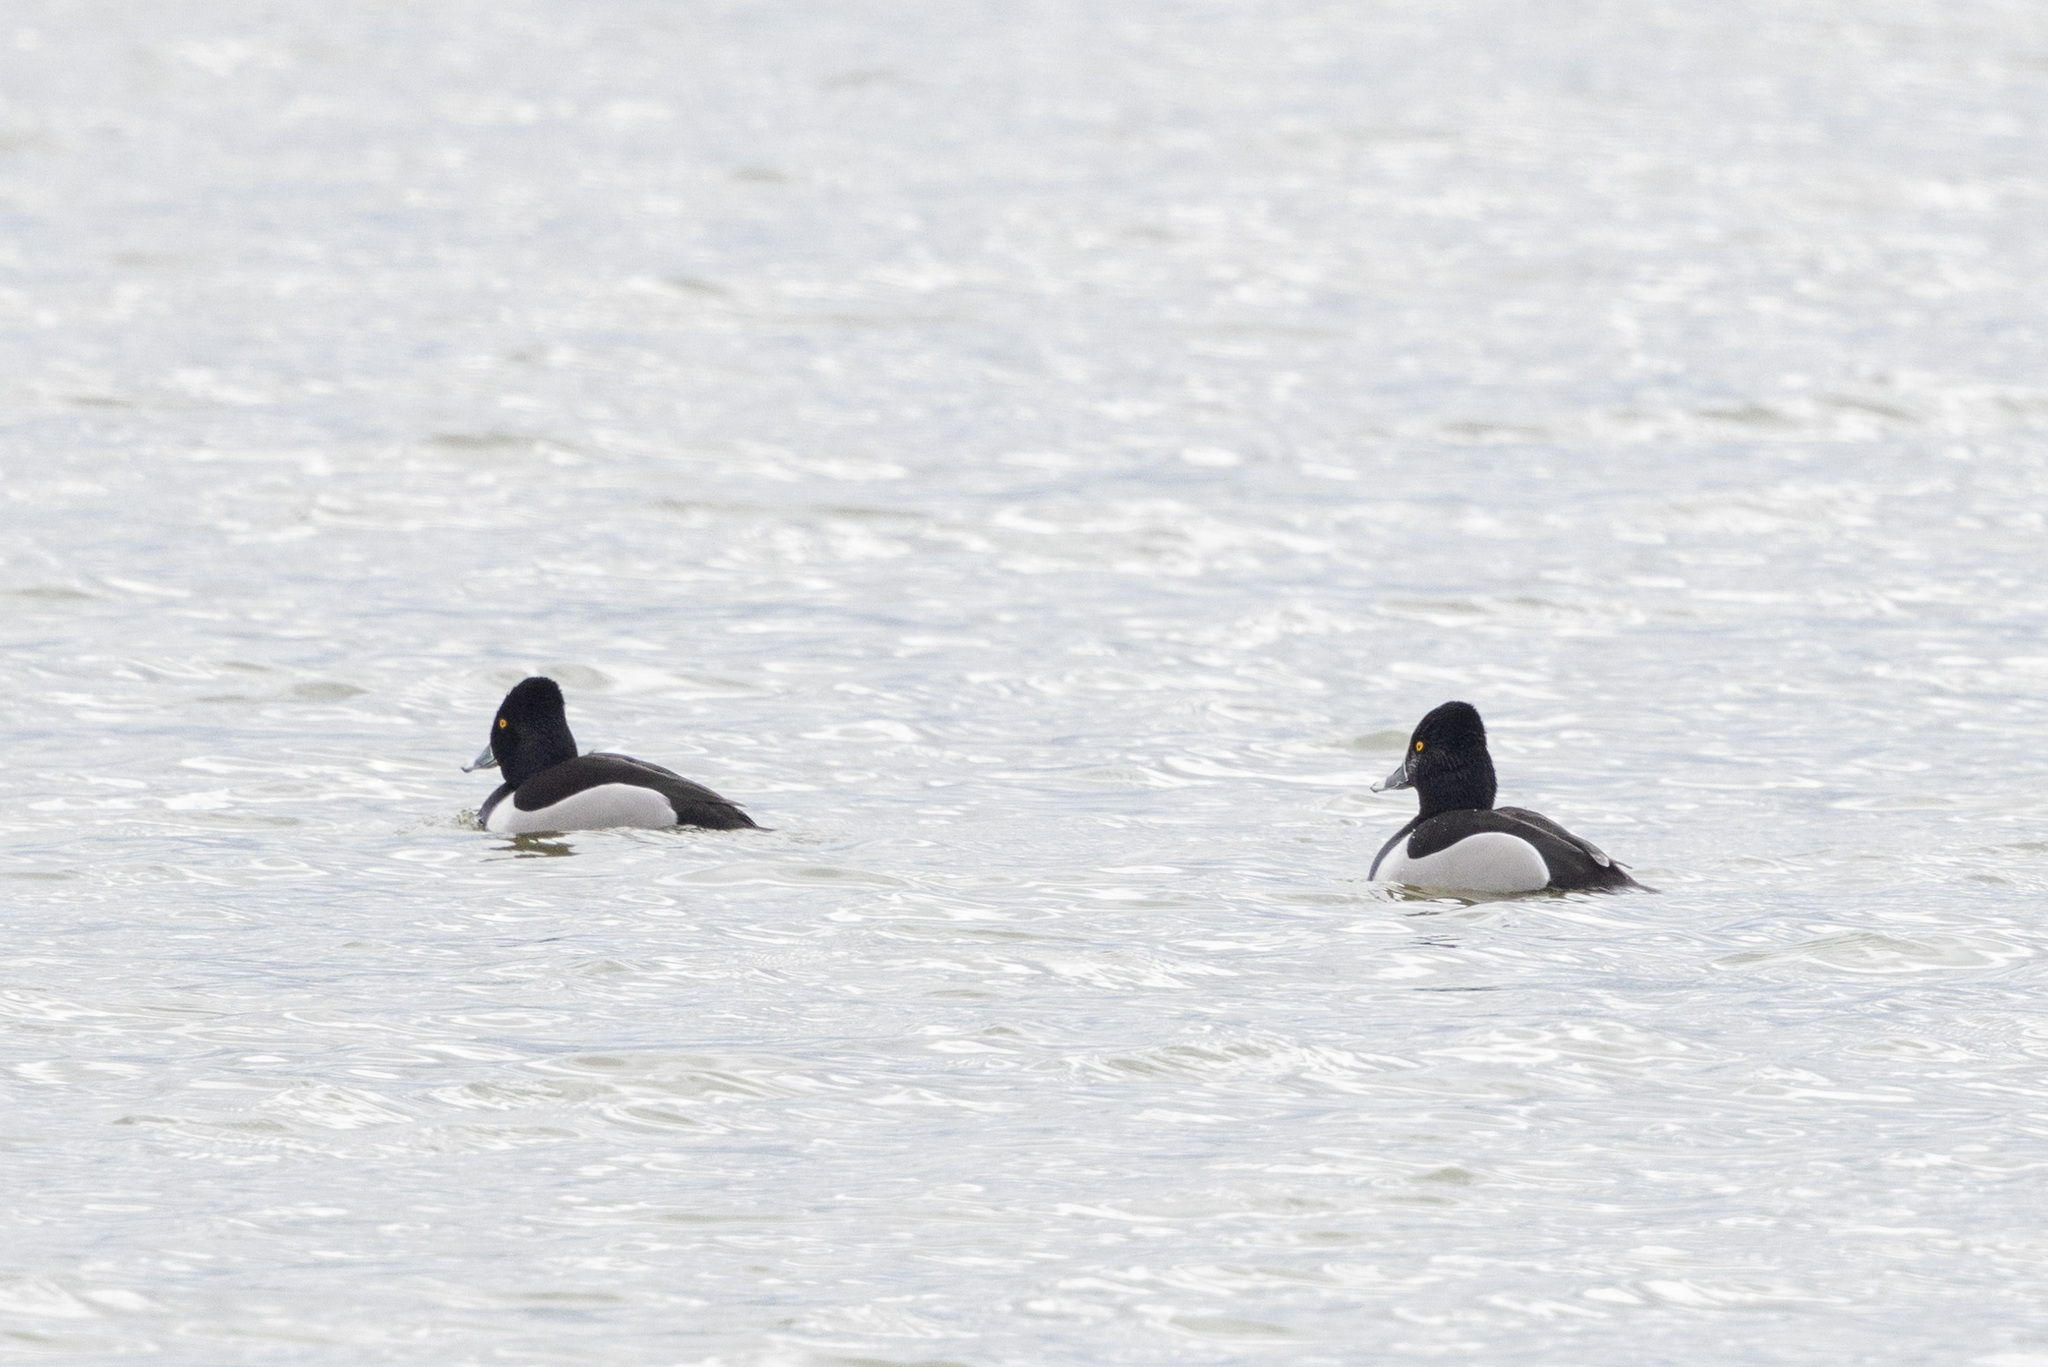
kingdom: Animalia
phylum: Chordata
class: Aves
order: Anseriformes
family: Anatidae
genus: Aythya
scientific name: Aythya collaris
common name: Ring-necked duck
